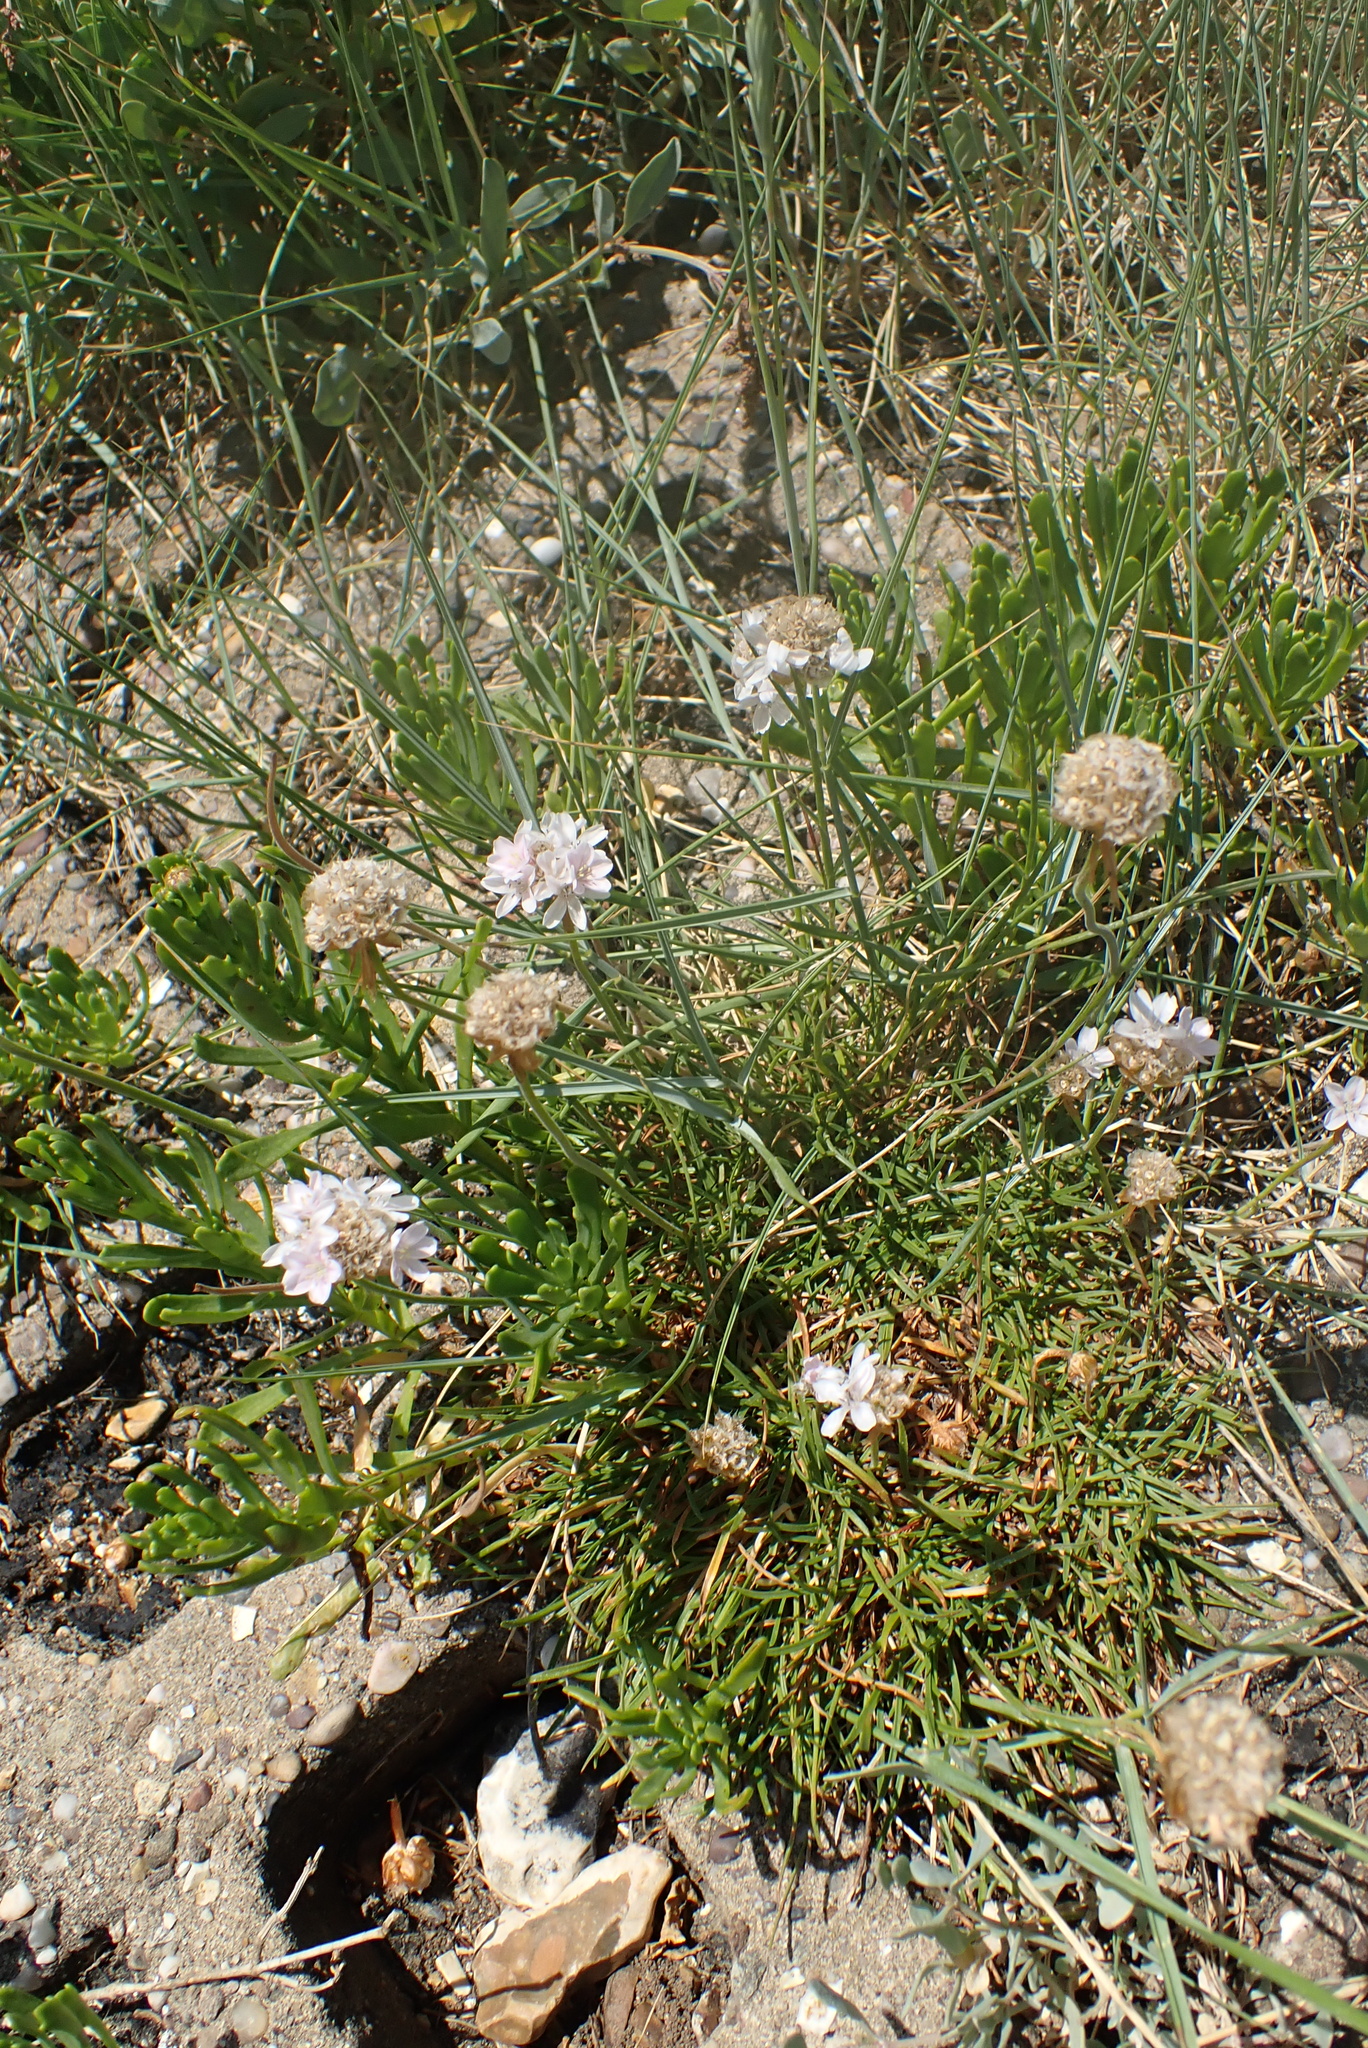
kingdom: Plantae
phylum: Tracheophyta
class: Magnoliopsida
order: Caryophyllales
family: Plumbaginaceae
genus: Armeria
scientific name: Armeria maritima
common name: Thrift
